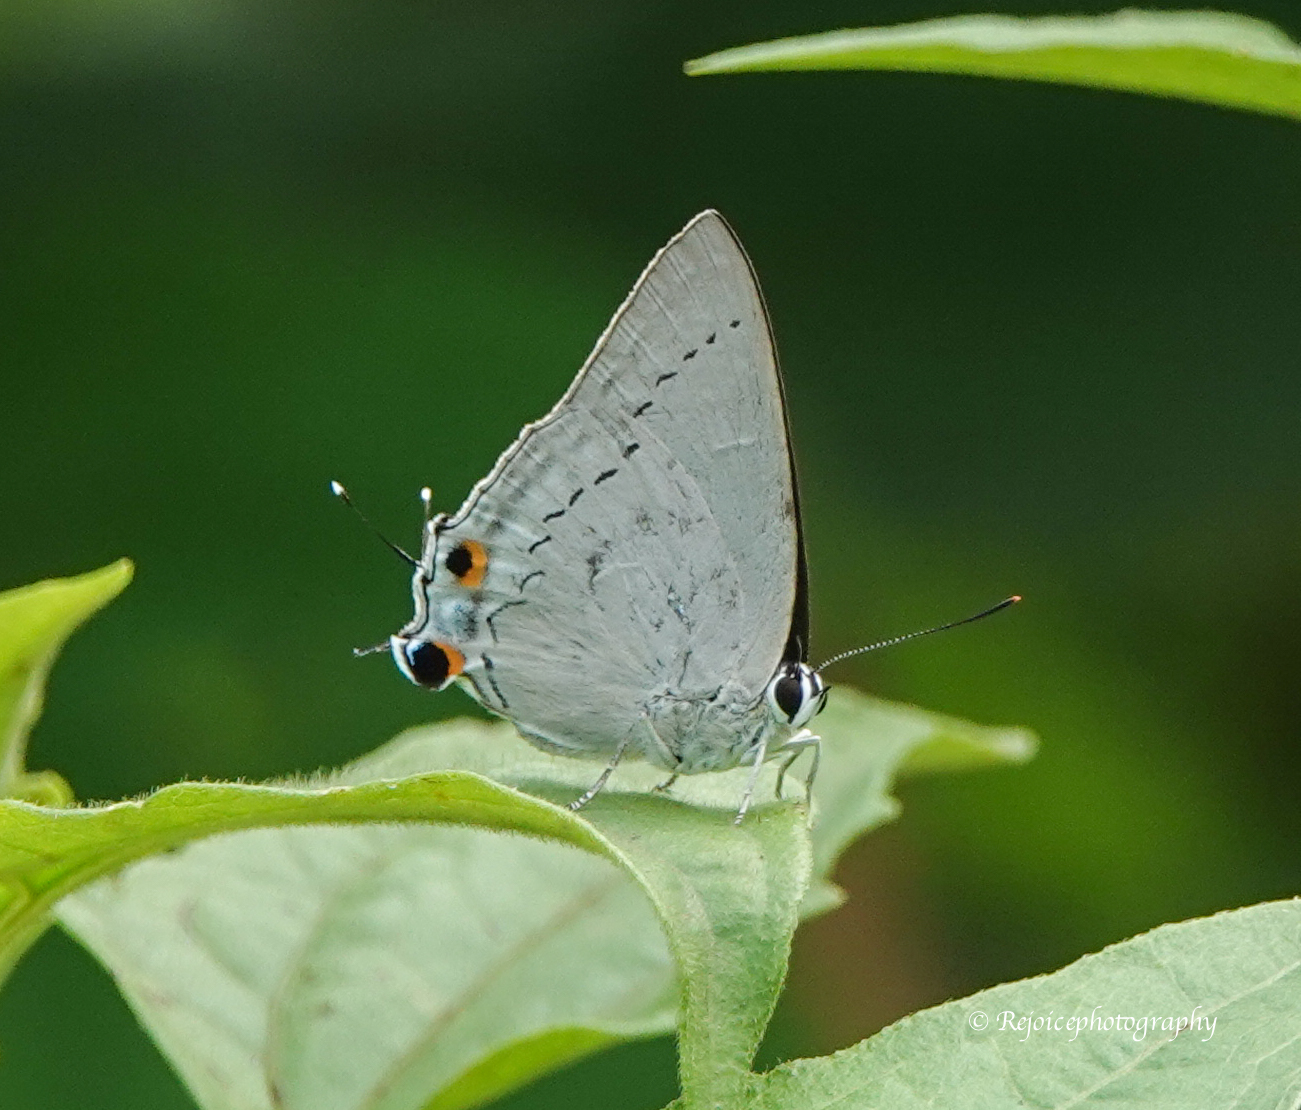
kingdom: Animalia
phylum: Arthropoda
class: Insecta
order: Lepidoptera
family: Lycaenidae
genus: Tajuria
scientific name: Tajuria cippus
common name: Peacock royal
